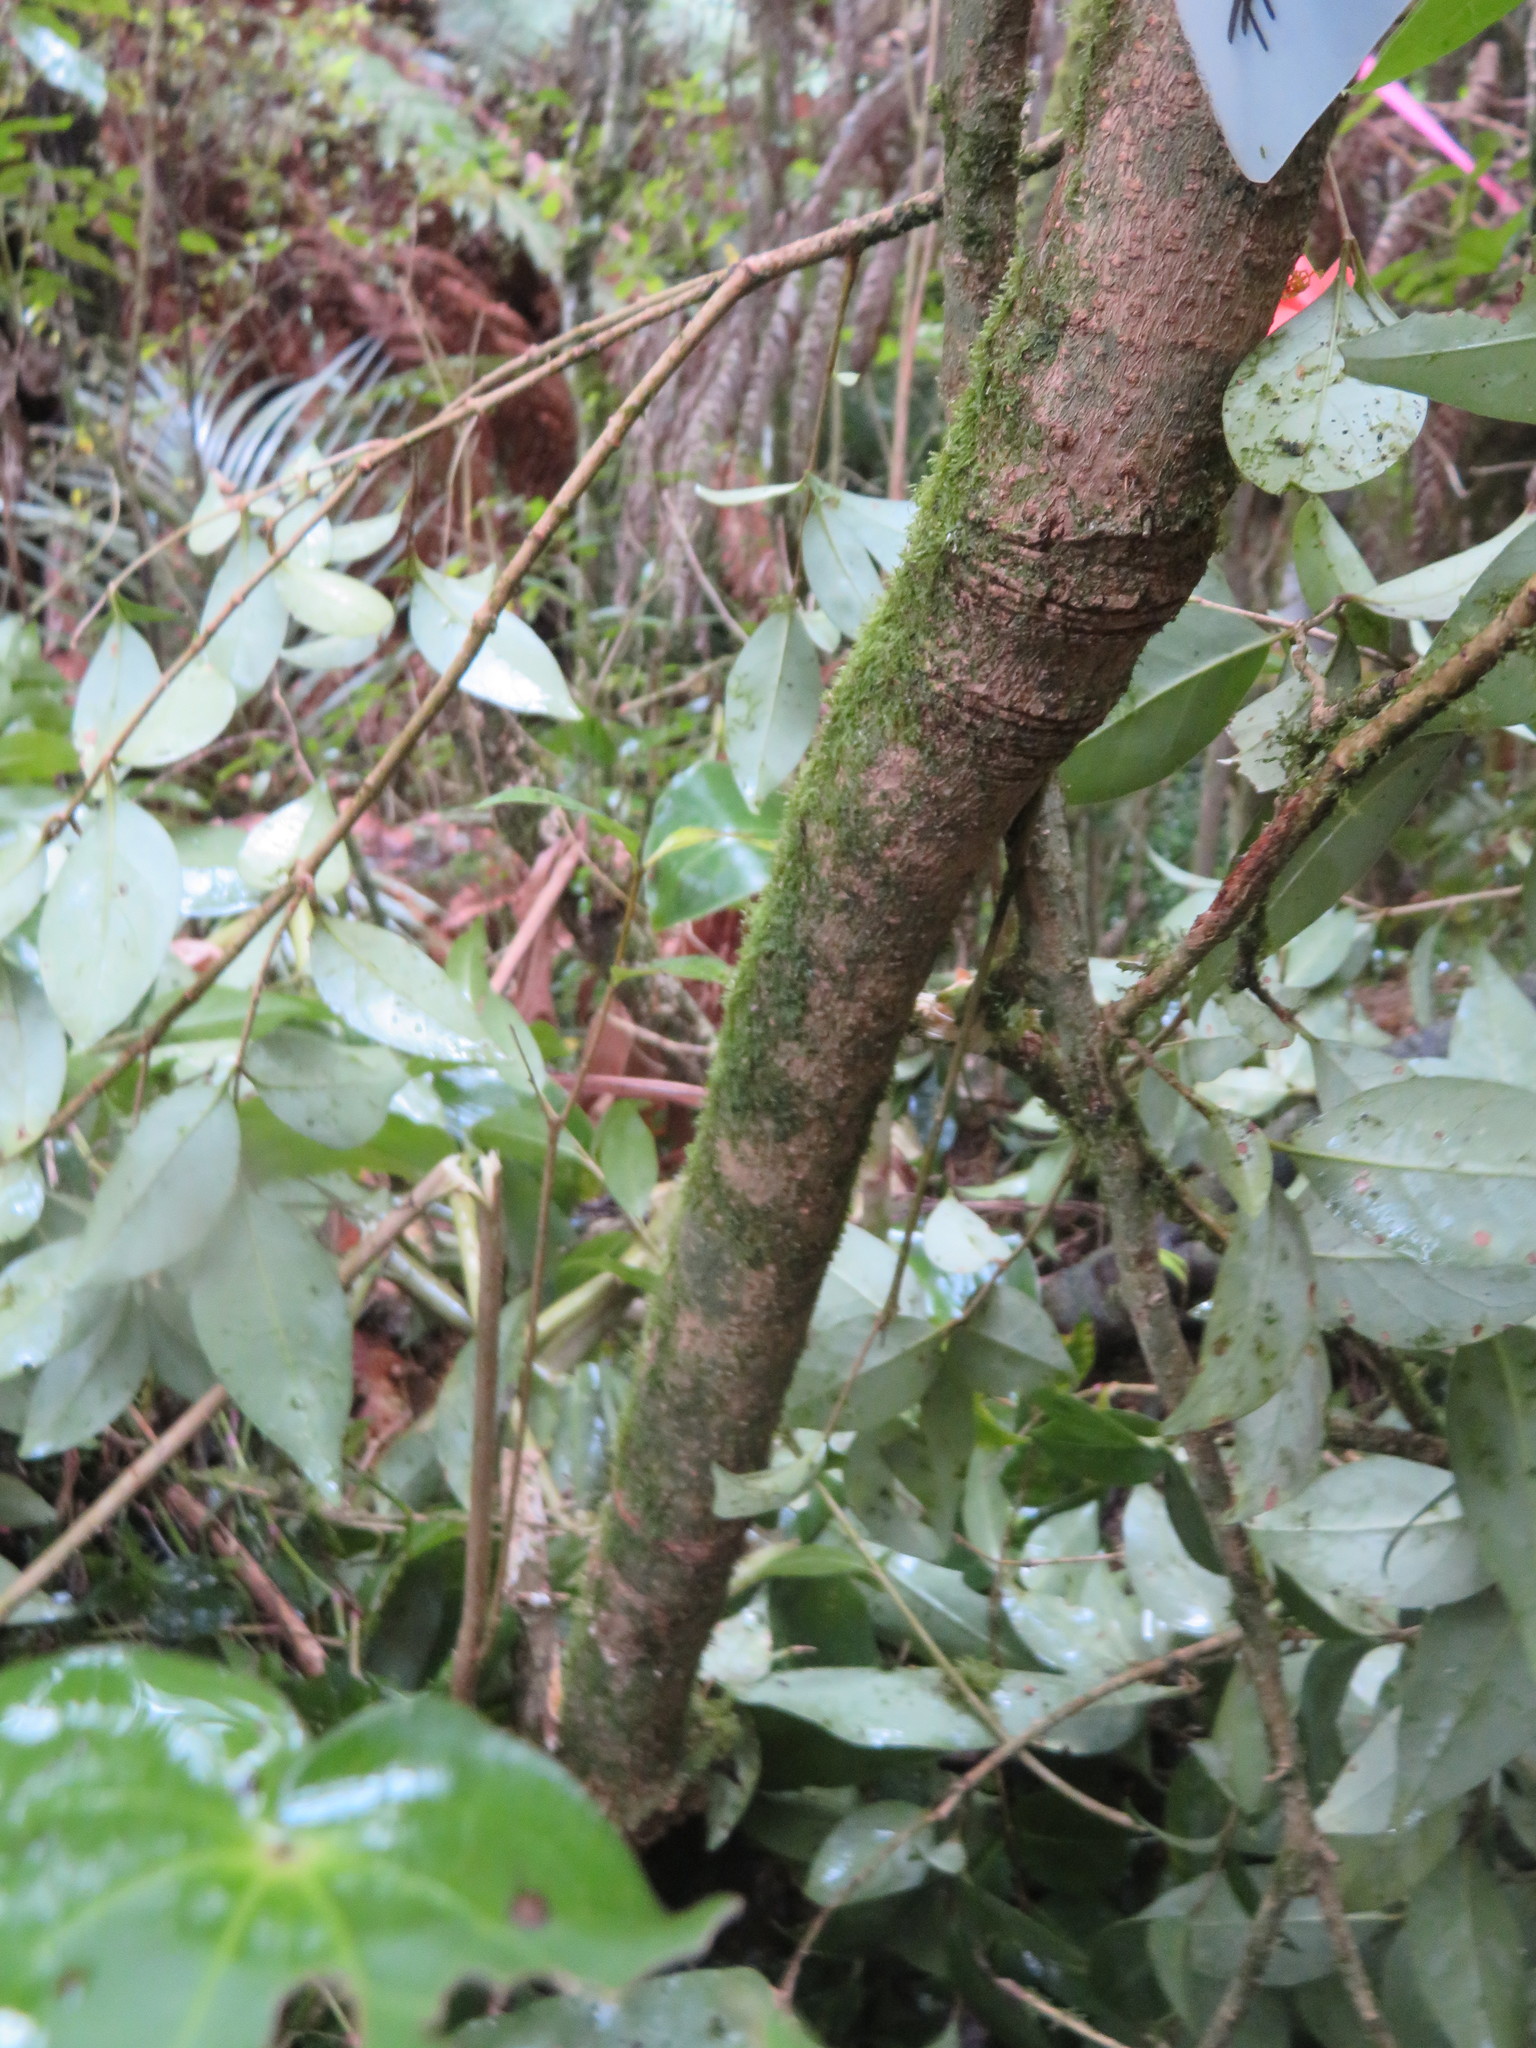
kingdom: Plantae
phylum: Tracheophyta
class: Magnoliopsida
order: Lamiales
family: Oleaceae
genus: Ligustrum
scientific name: Ligustrum lucidum
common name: Glossy privet
